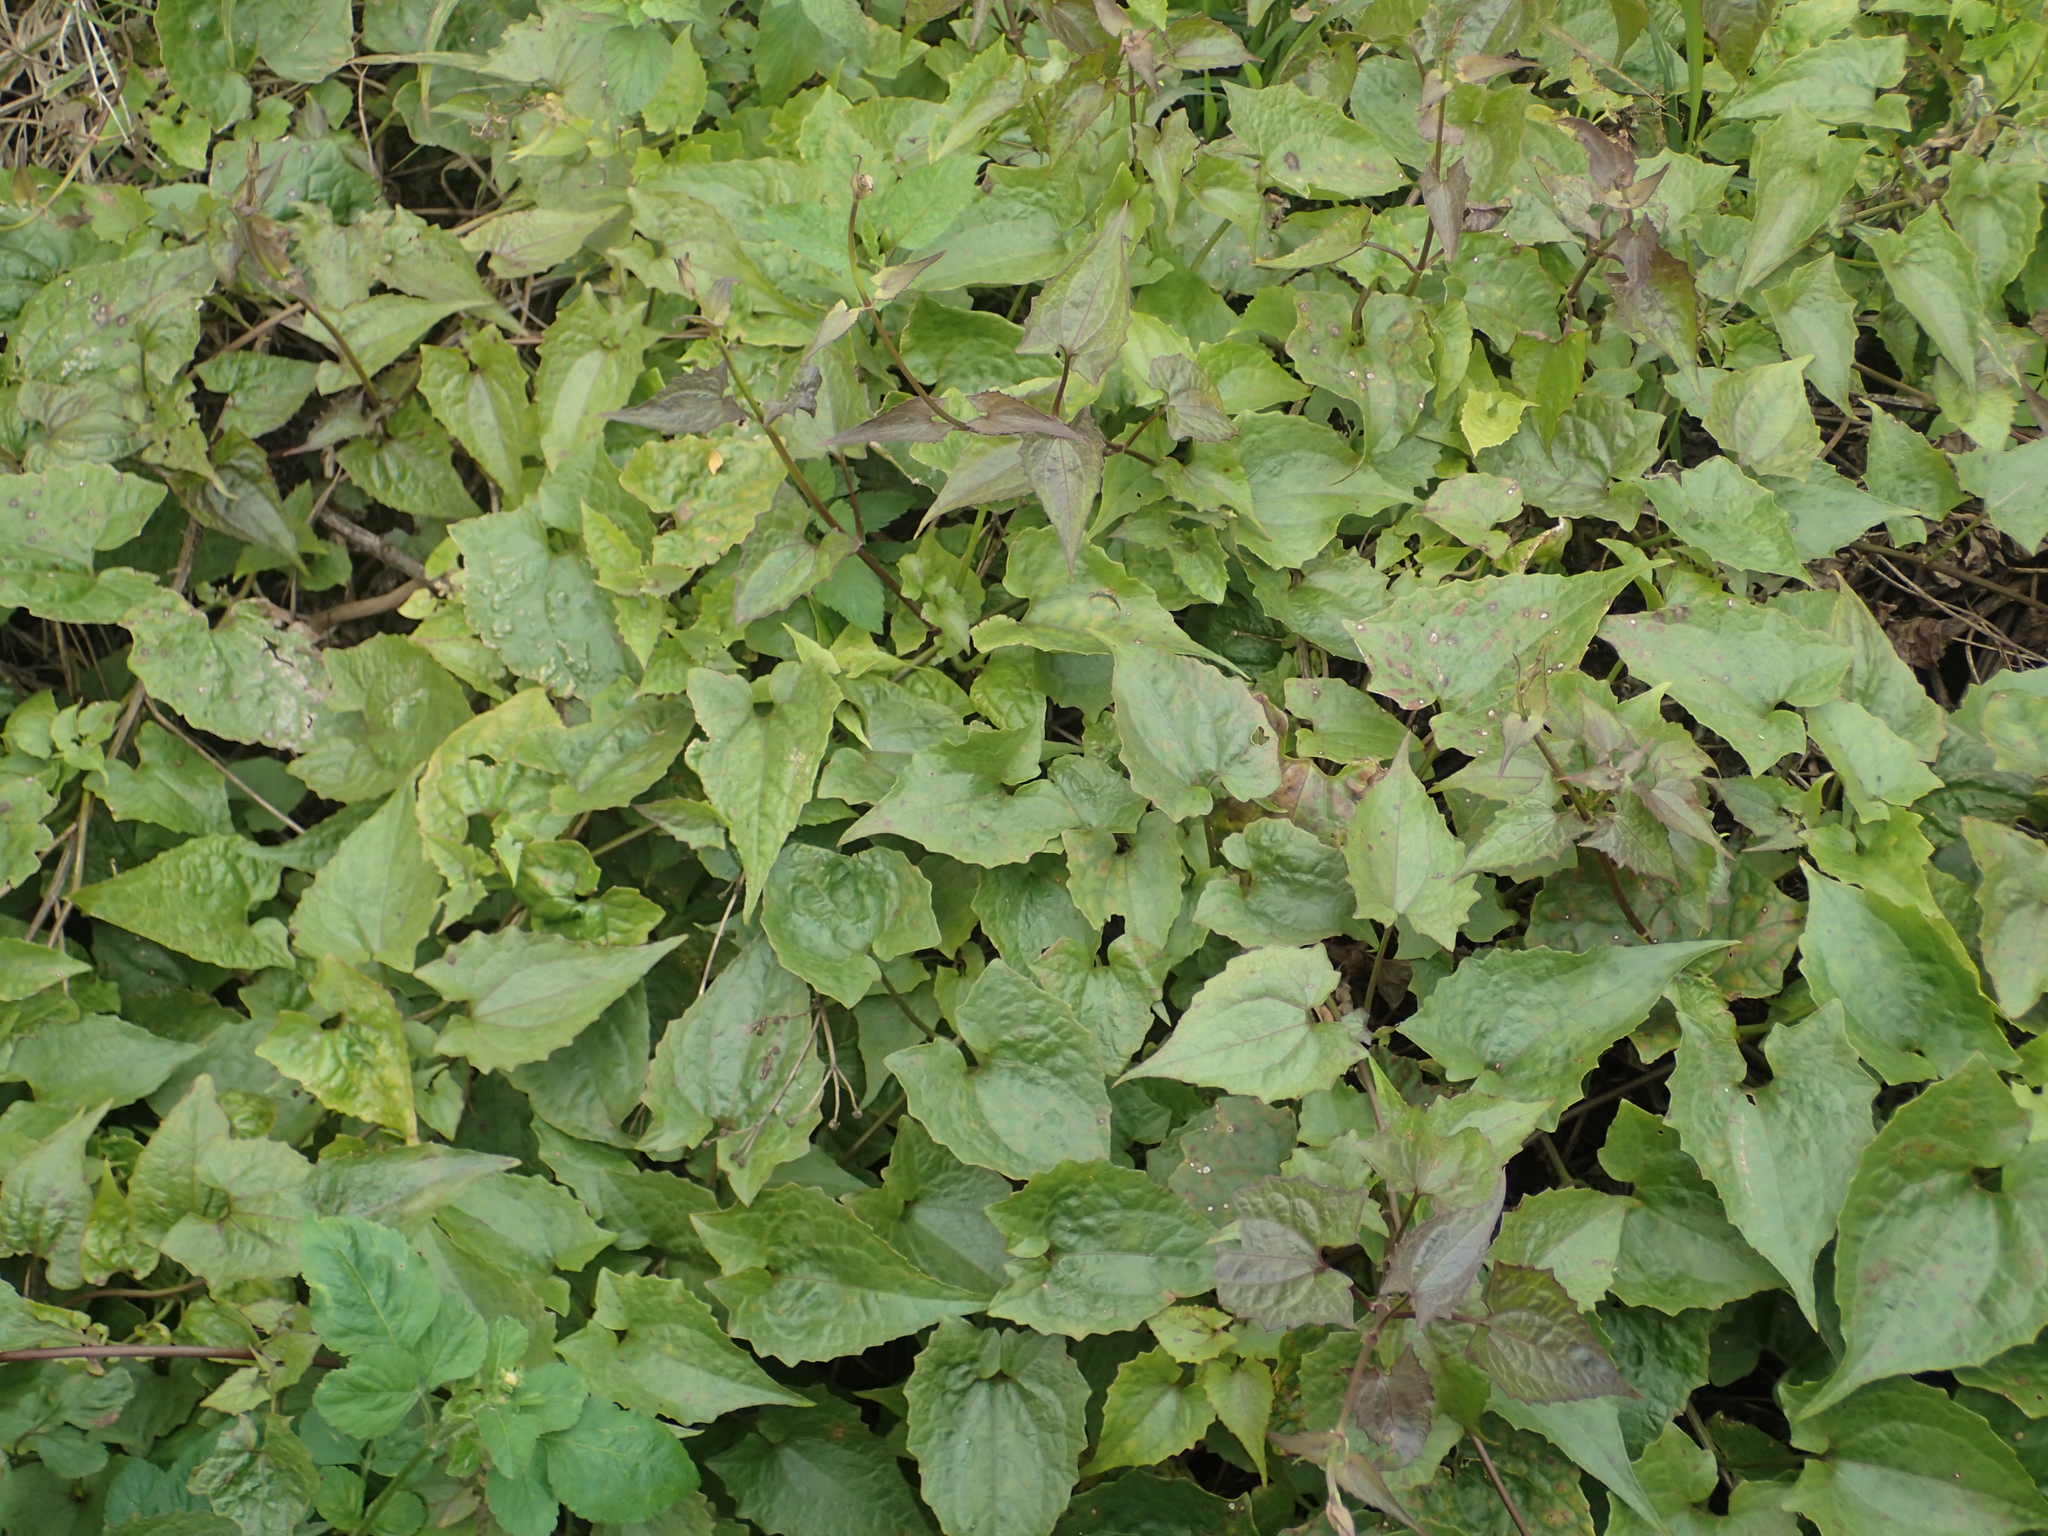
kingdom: Plantae
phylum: Tracheophyta
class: Magnoliopsida
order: Asterales
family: Asteraceae
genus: Mikania
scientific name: Mikania micrantha
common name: Mile-a-minute
